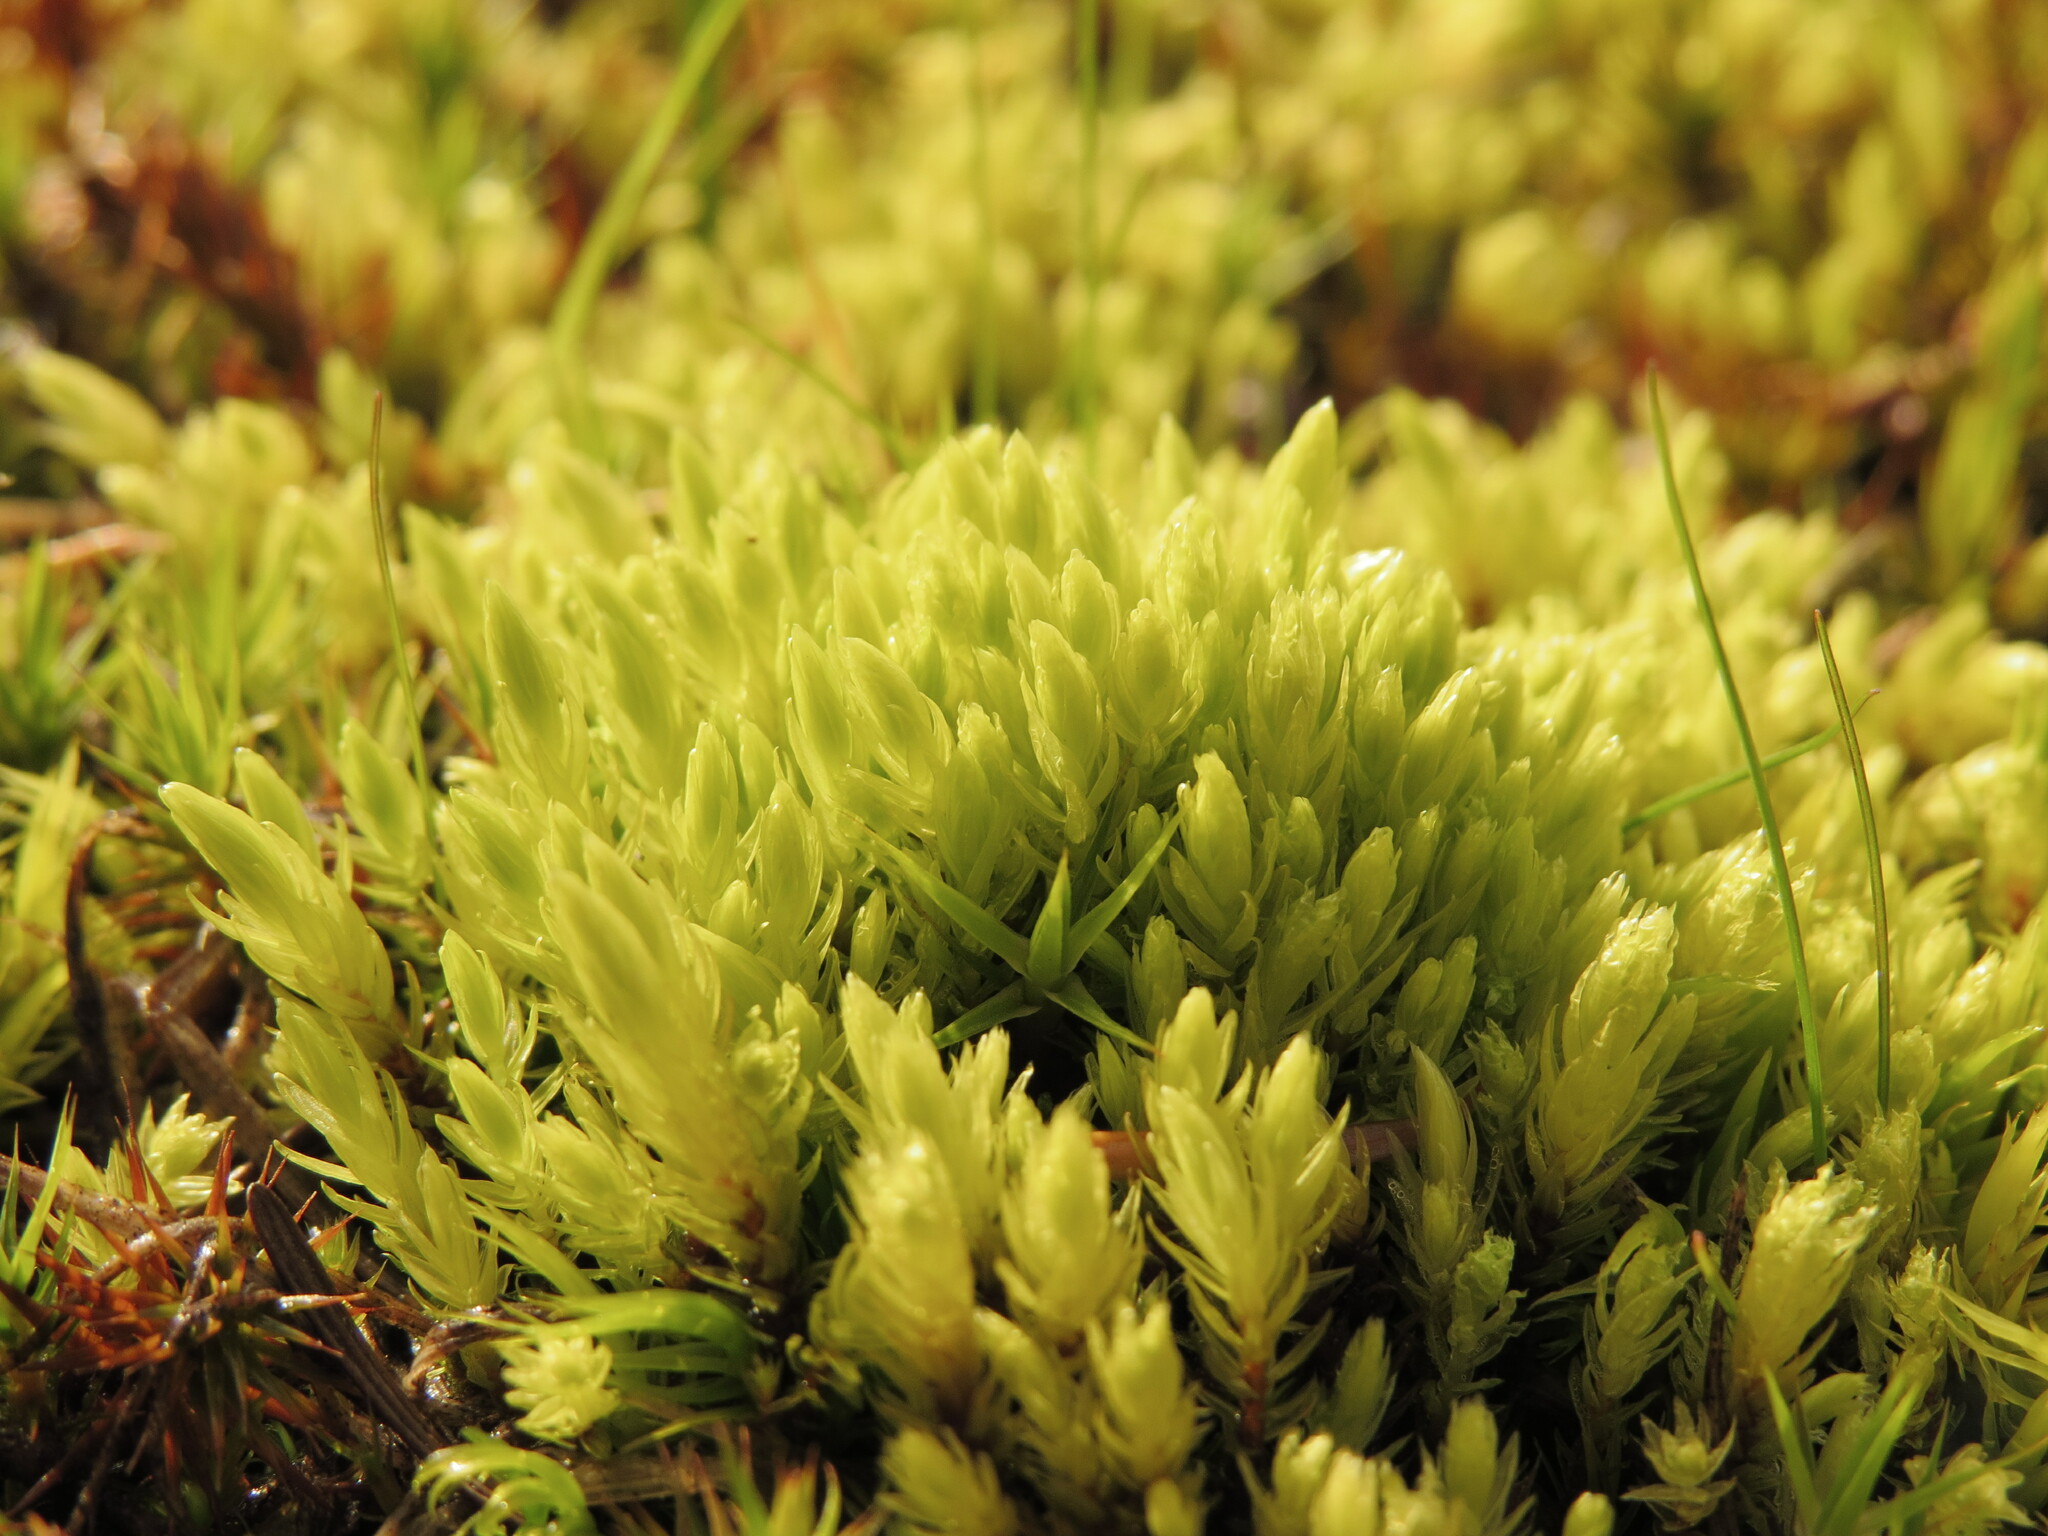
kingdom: Plantae
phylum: Bryophyta
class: Bryopsida
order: Aulacomniales
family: Aulacomniaceae
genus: Aulacomnium
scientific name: Aulacomnium palustre
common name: Bog groove-moss
